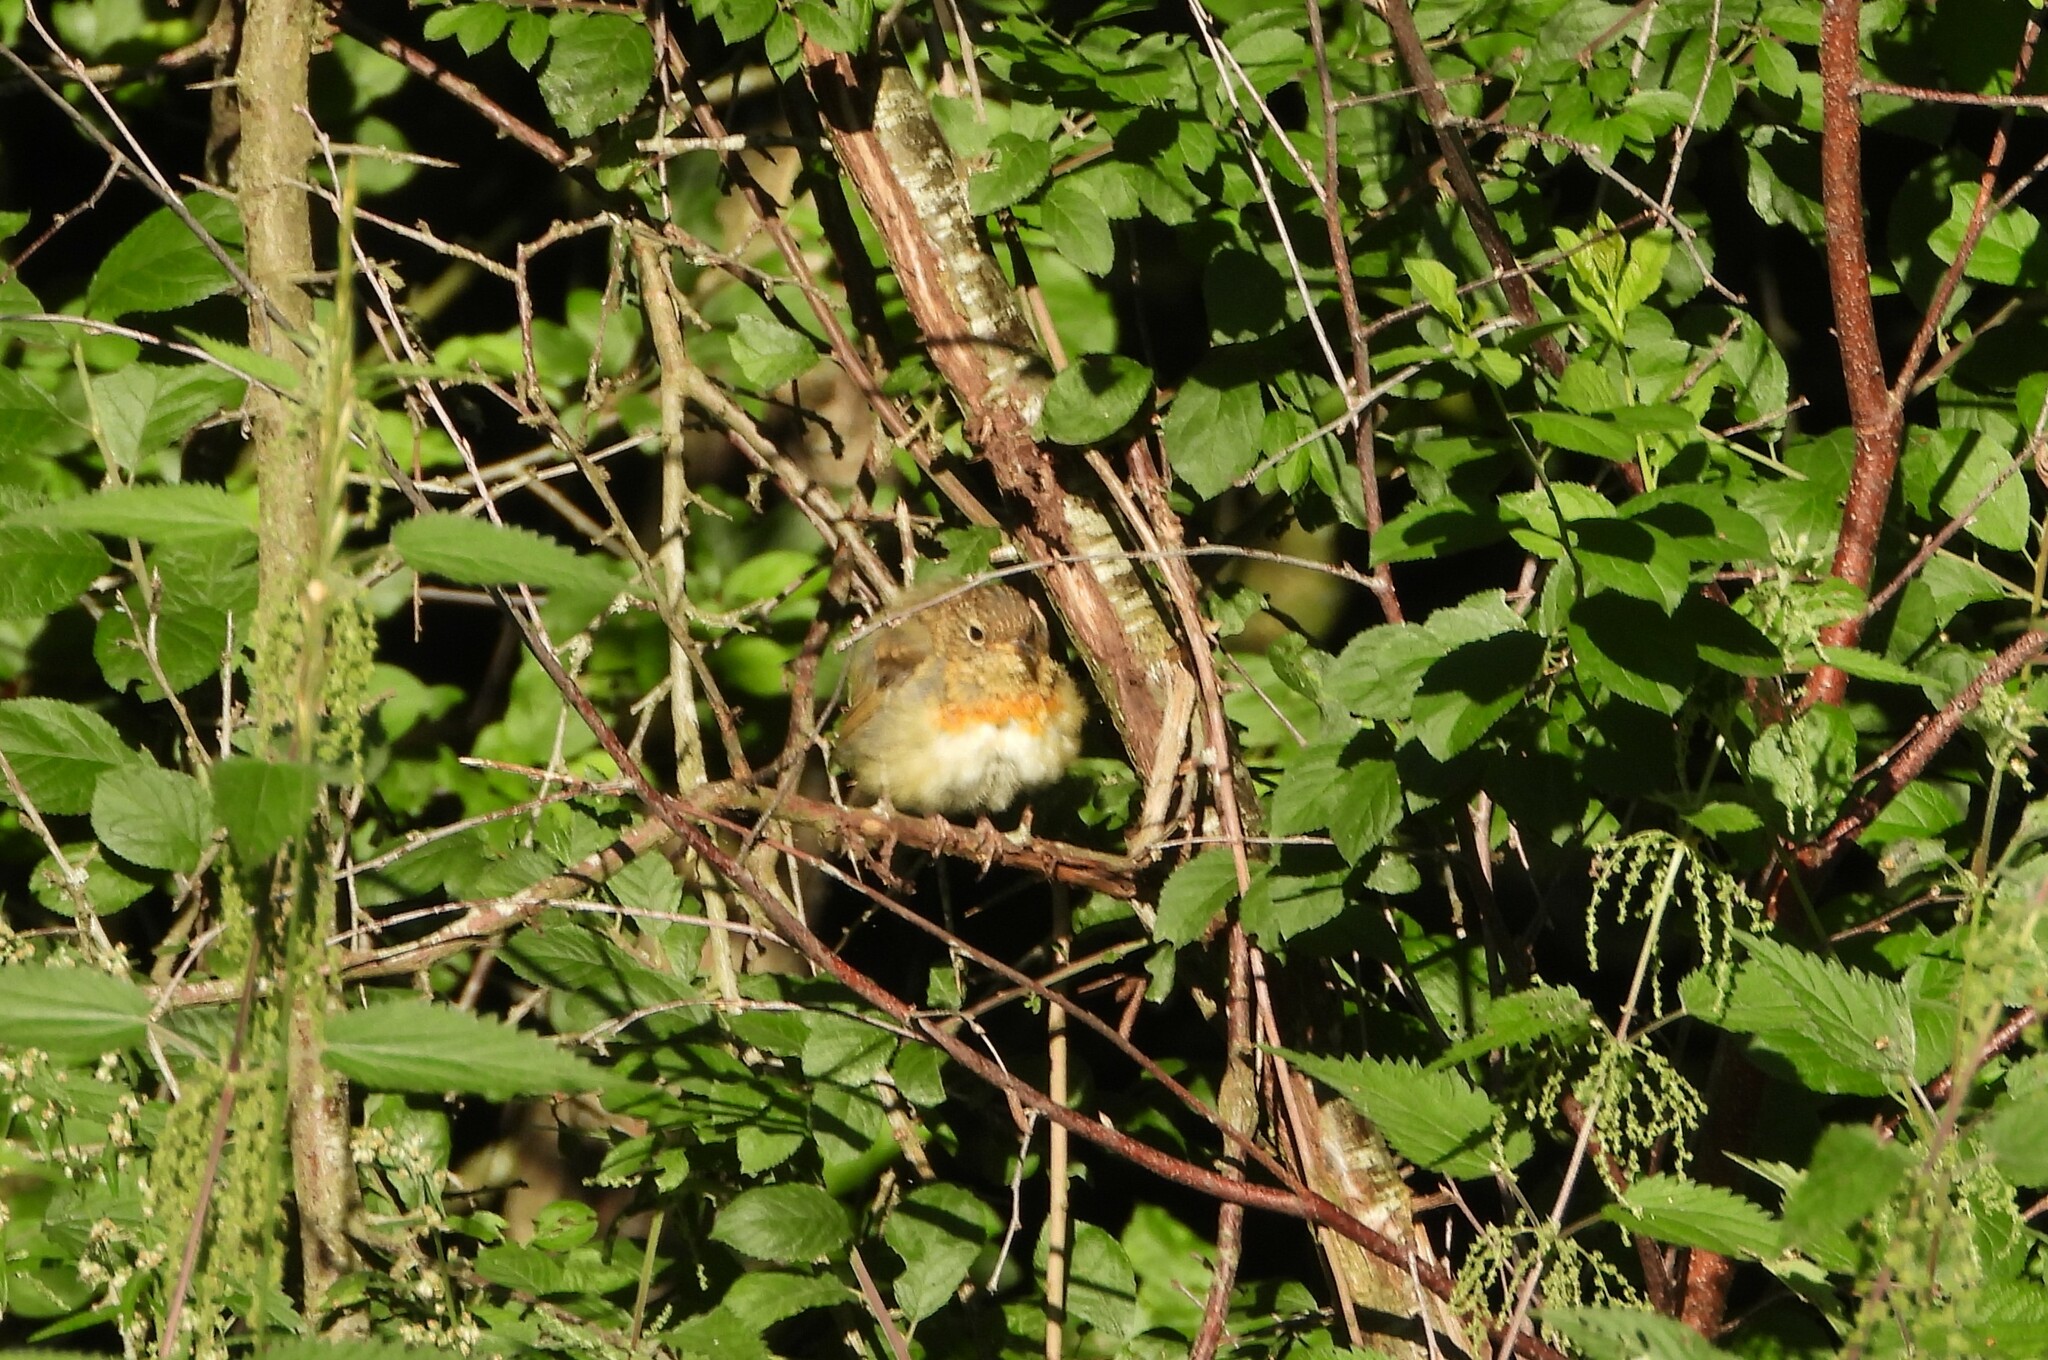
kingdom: Animalia
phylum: Chordata
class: Aves
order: Passeriformes
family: Muscicapidae
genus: Erithacus
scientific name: Erithacus rubecula
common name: European robin
